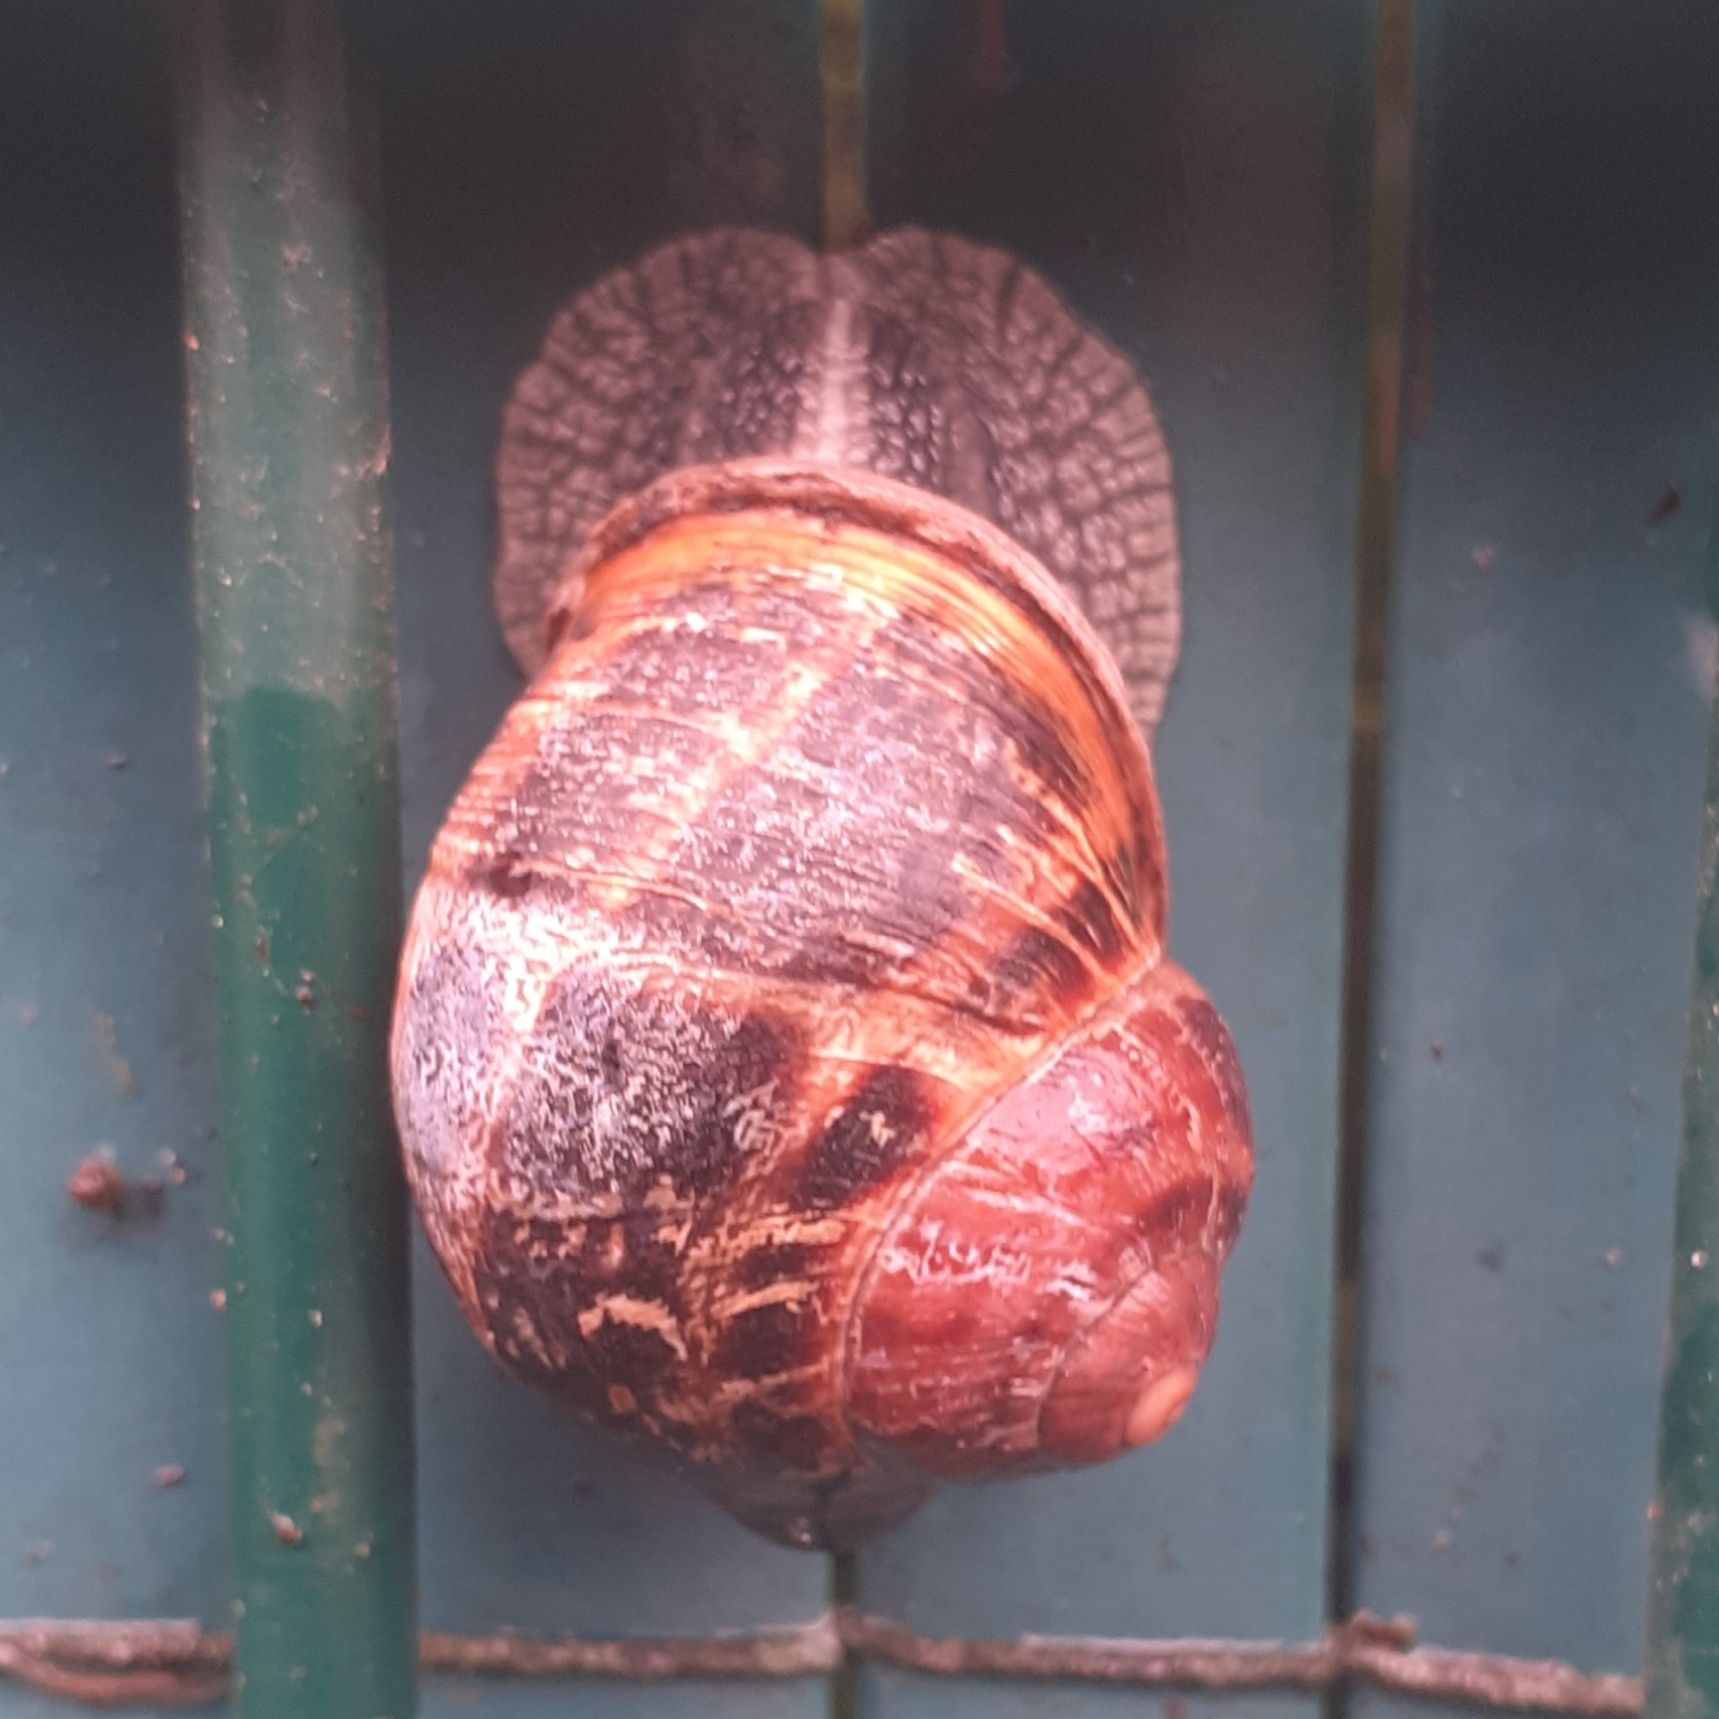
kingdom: Animalia
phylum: Mollusca
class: Gastropoda
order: Stylommatophora
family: Helicidae
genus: Cornu
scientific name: Cornu aspersum
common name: Brown garden snail
